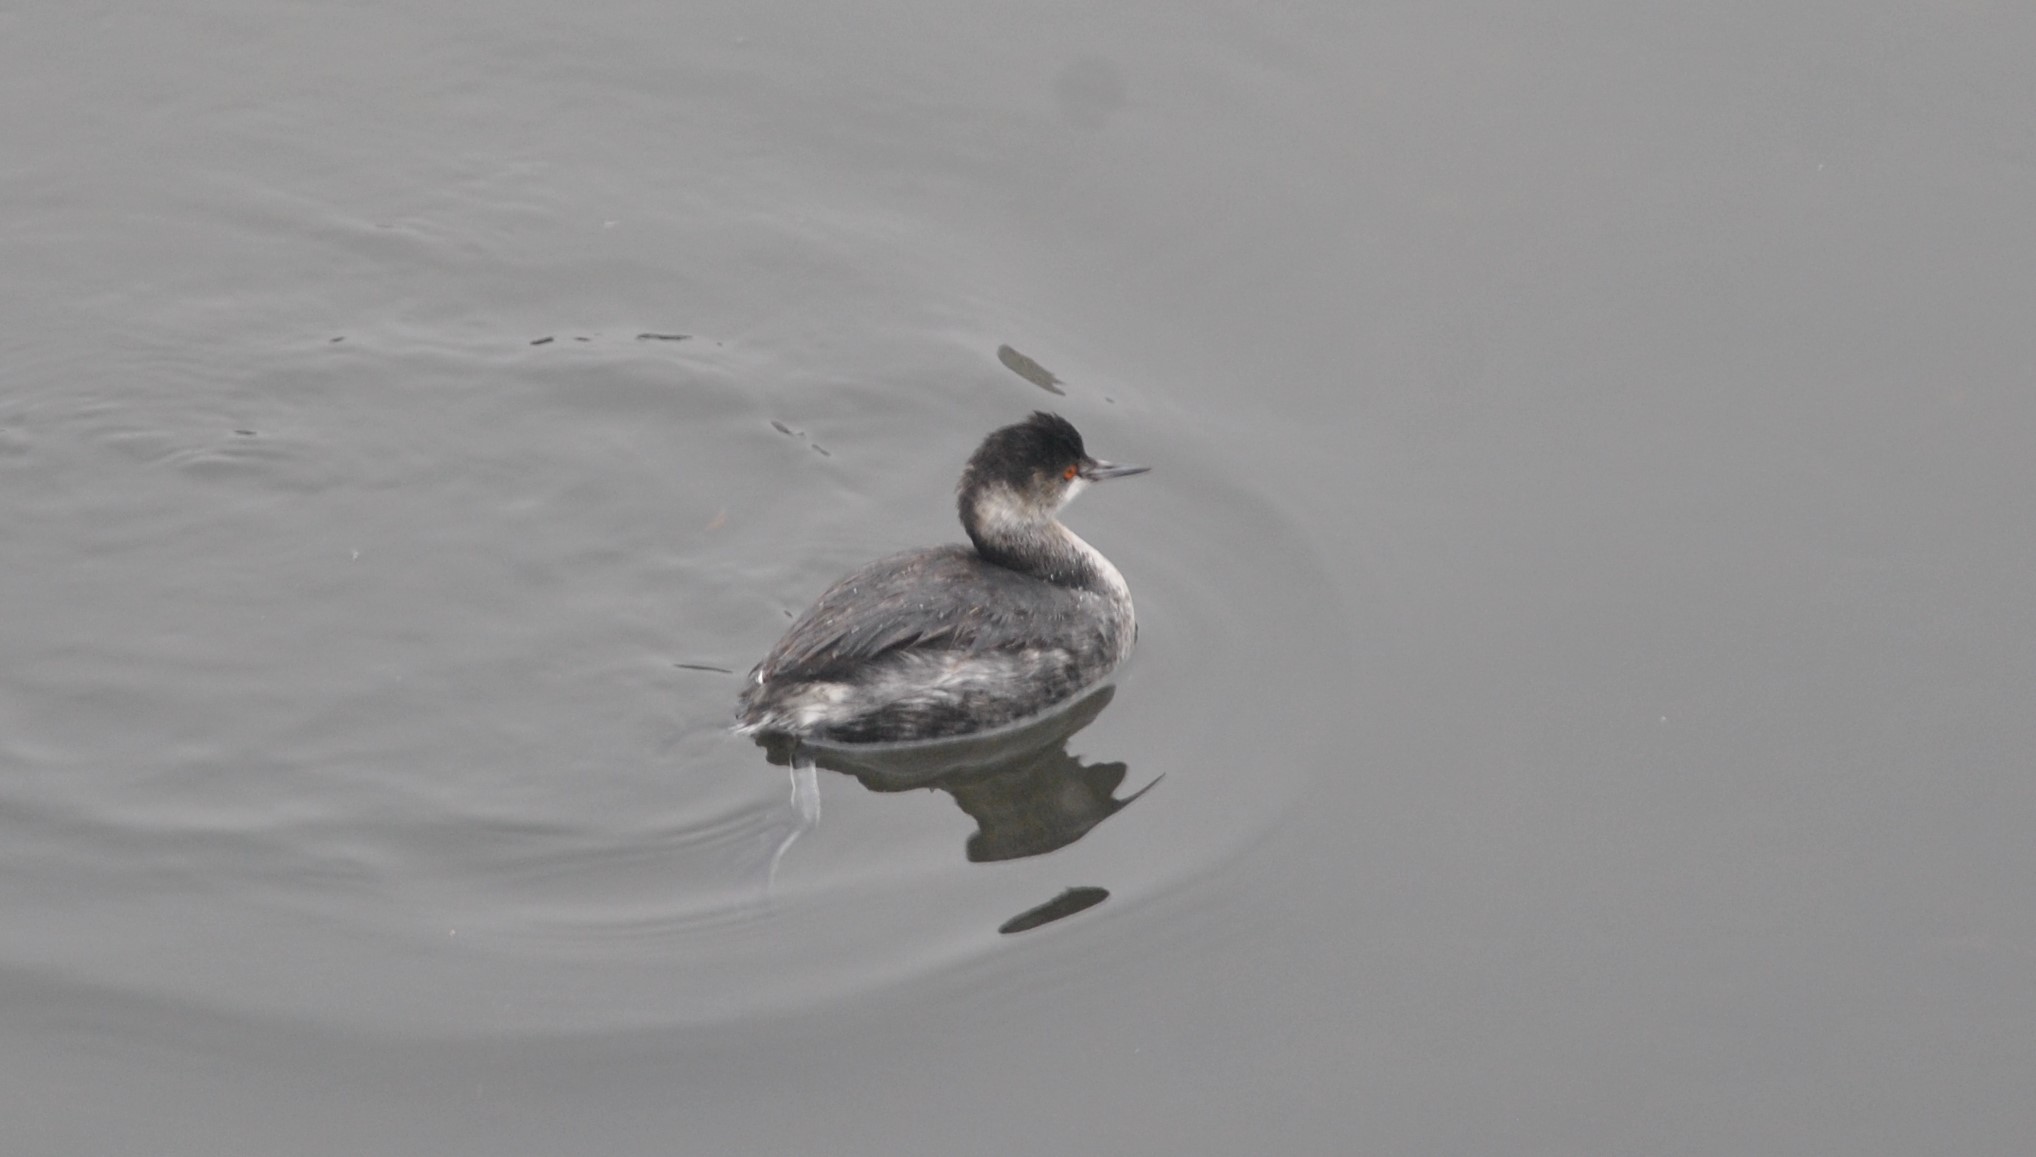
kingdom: Animalia
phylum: Chordata
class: Aves
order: Podicipediformes
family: Podicipedidae
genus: Podiceps
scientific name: Podiceps nigricollis
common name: Black-necked grebe
